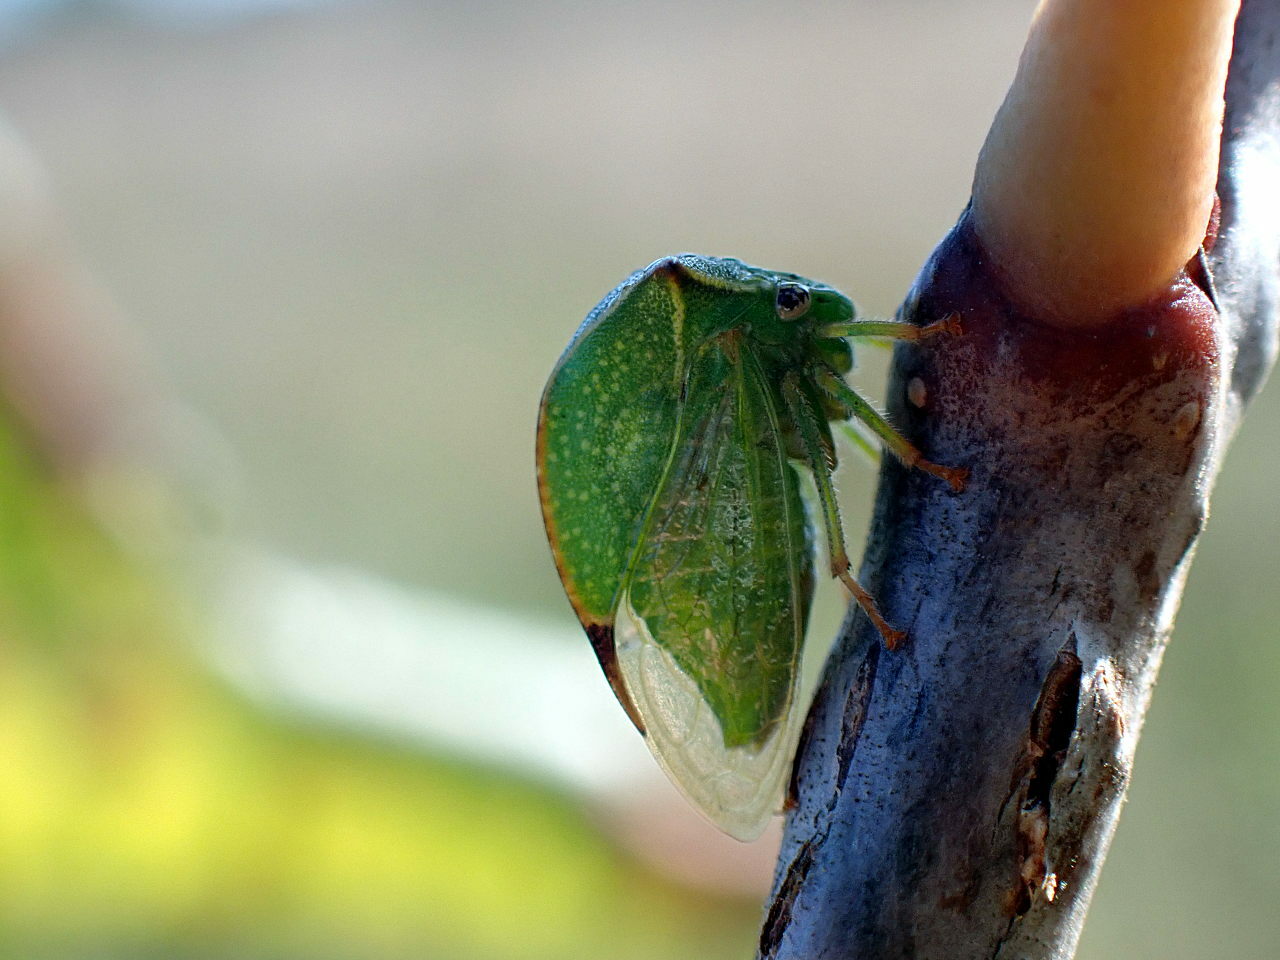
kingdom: Animalia
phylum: Arthropoda
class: Insecta
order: Hemiptera
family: Membracidae
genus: Stictocephala
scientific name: Stictocephala bisonia
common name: American buffalo treehopper
